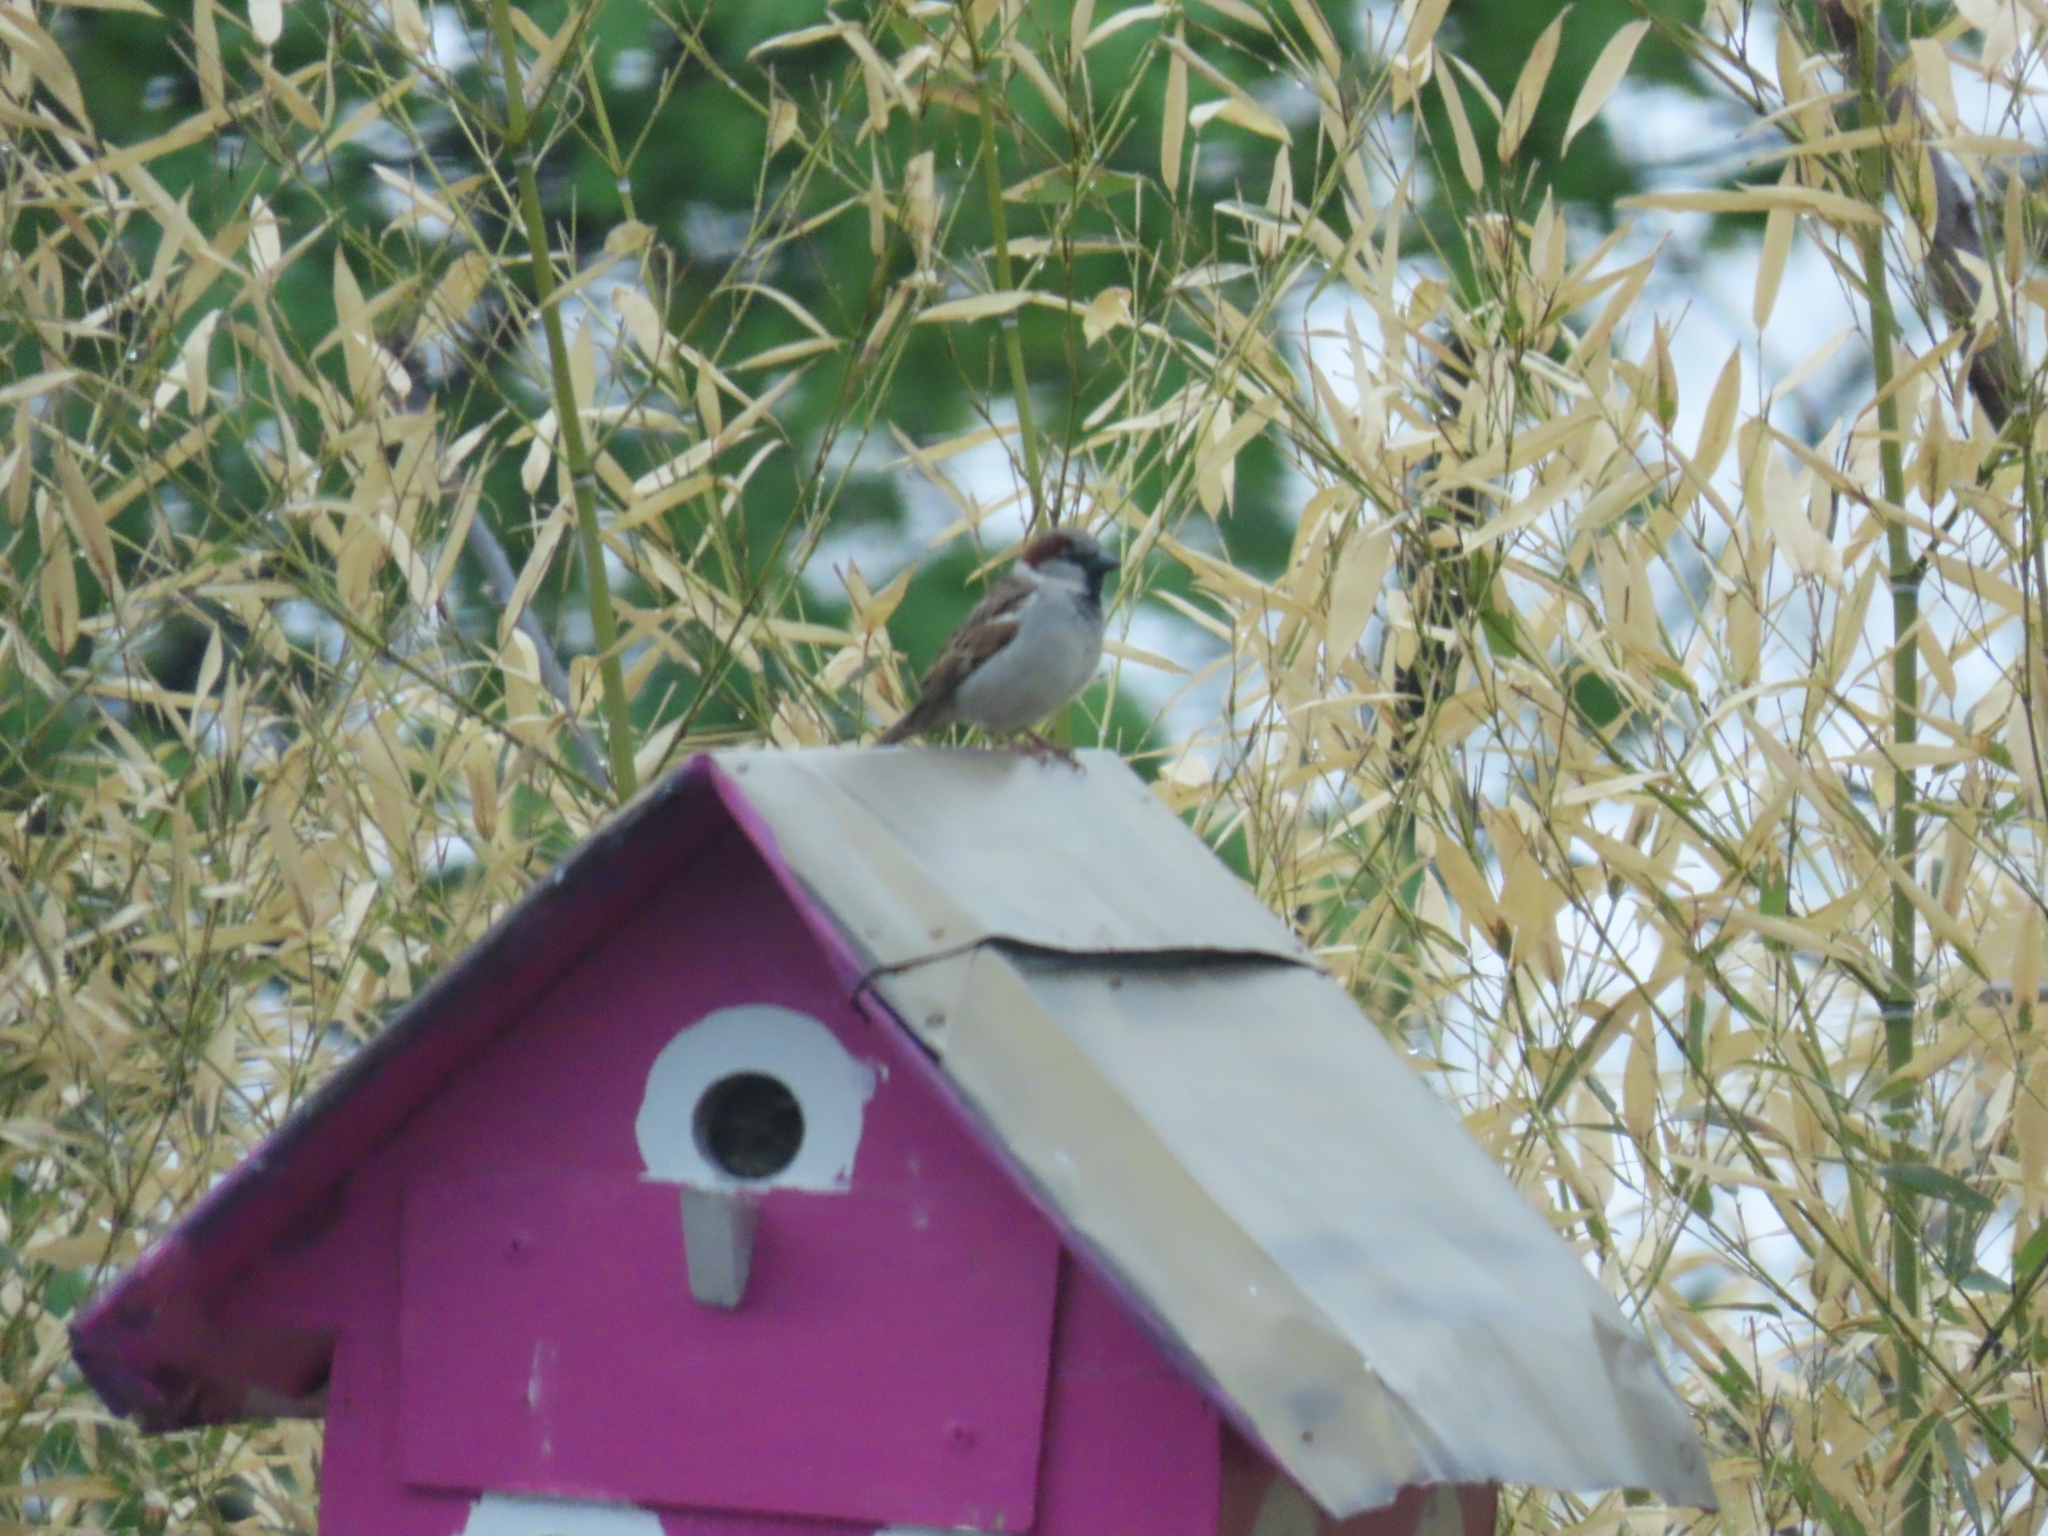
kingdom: Animalia
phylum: Chordata
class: Aves
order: Passeriformes
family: Passeridae
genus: Passer
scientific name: Passer domesticus
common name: House sparrow
